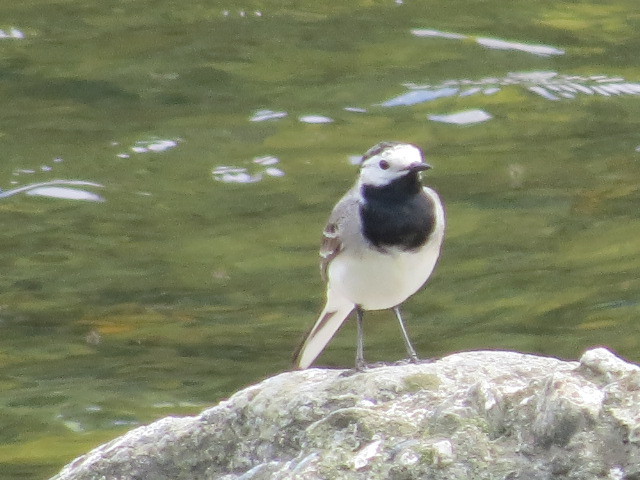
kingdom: Animalia
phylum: Chordata
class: Aves
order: Passeriformes
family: Motacillidae
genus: Motacilla
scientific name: Motacilla alba
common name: White wagtail
